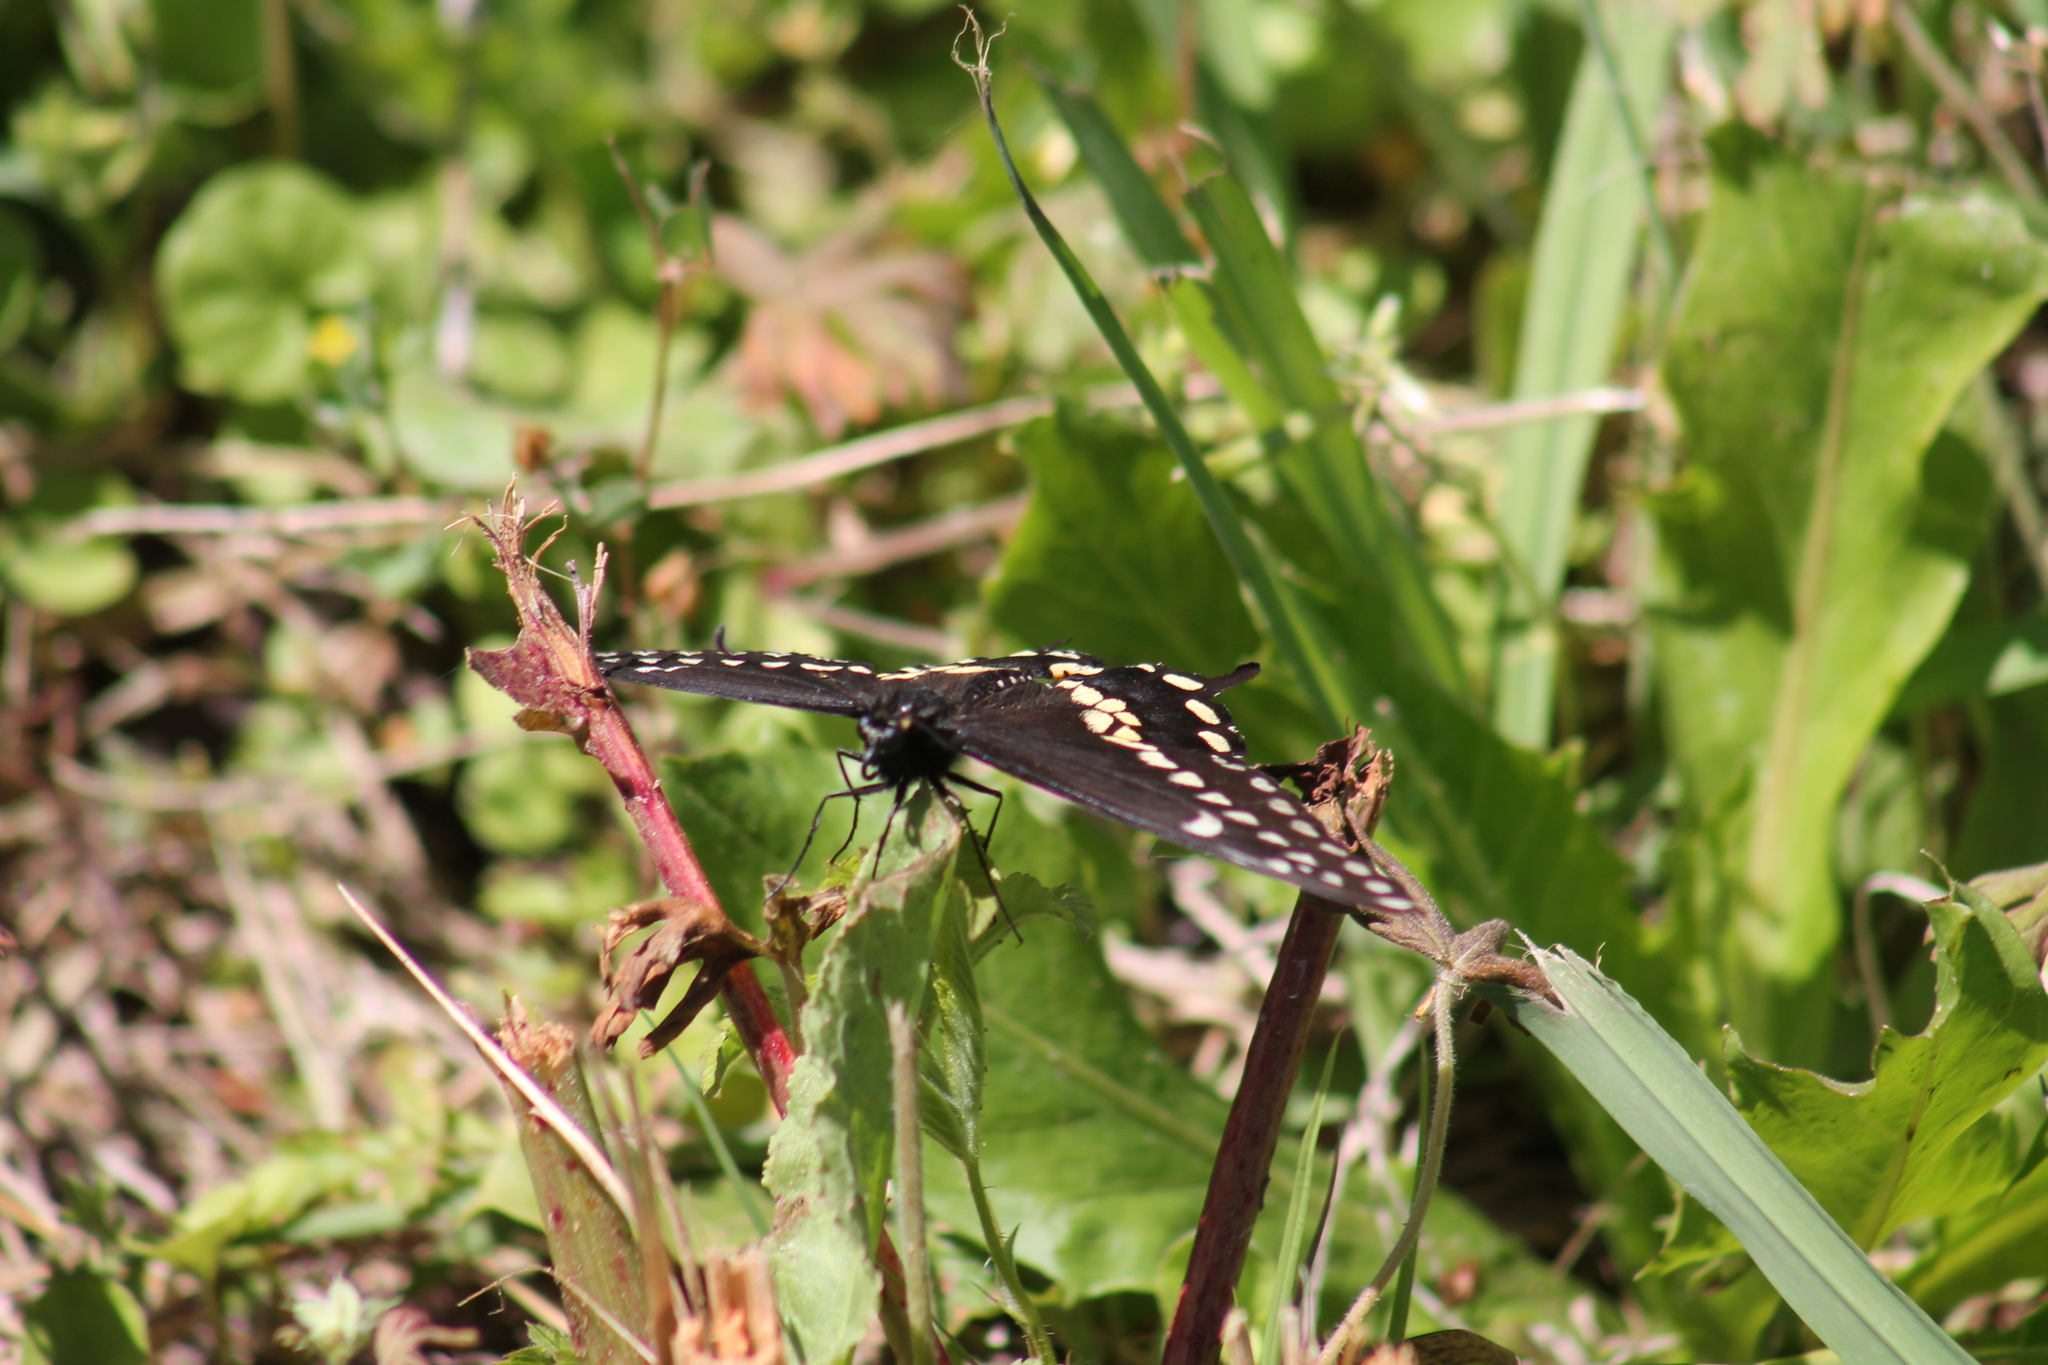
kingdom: Animalia
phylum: Arthropoda
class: Insecta
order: Lepidoptera
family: Papilionidae
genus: Papilio
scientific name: Papilio polyxenes
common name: Black swallowtail
